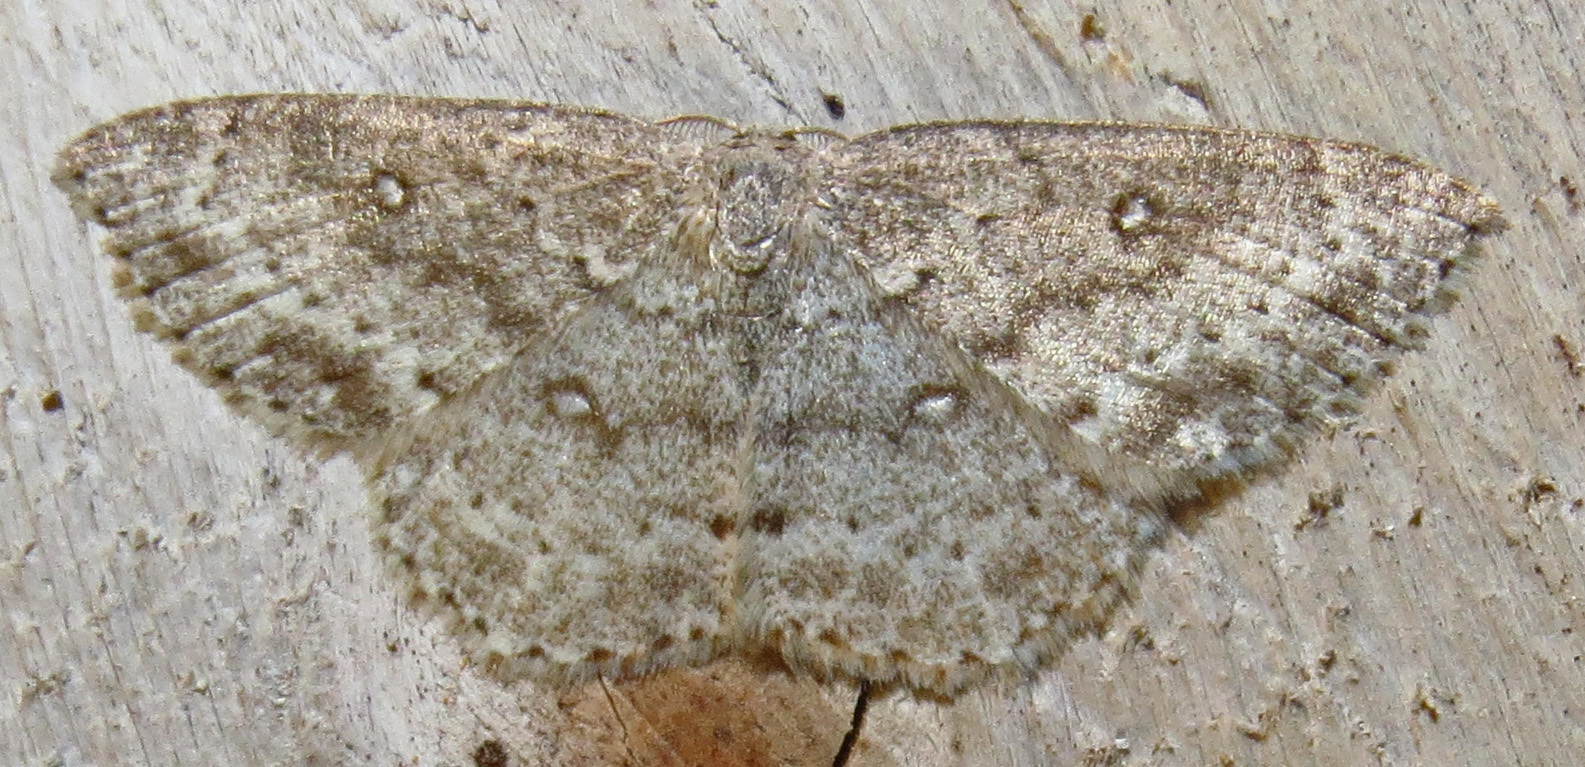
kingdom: Animalia
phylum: Arthropoda
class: Insecta
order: Lepidoptera
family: Geometridae
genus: Cyclophora
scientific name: Cyclophora pendulinaria
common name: Sweet fern geometer
